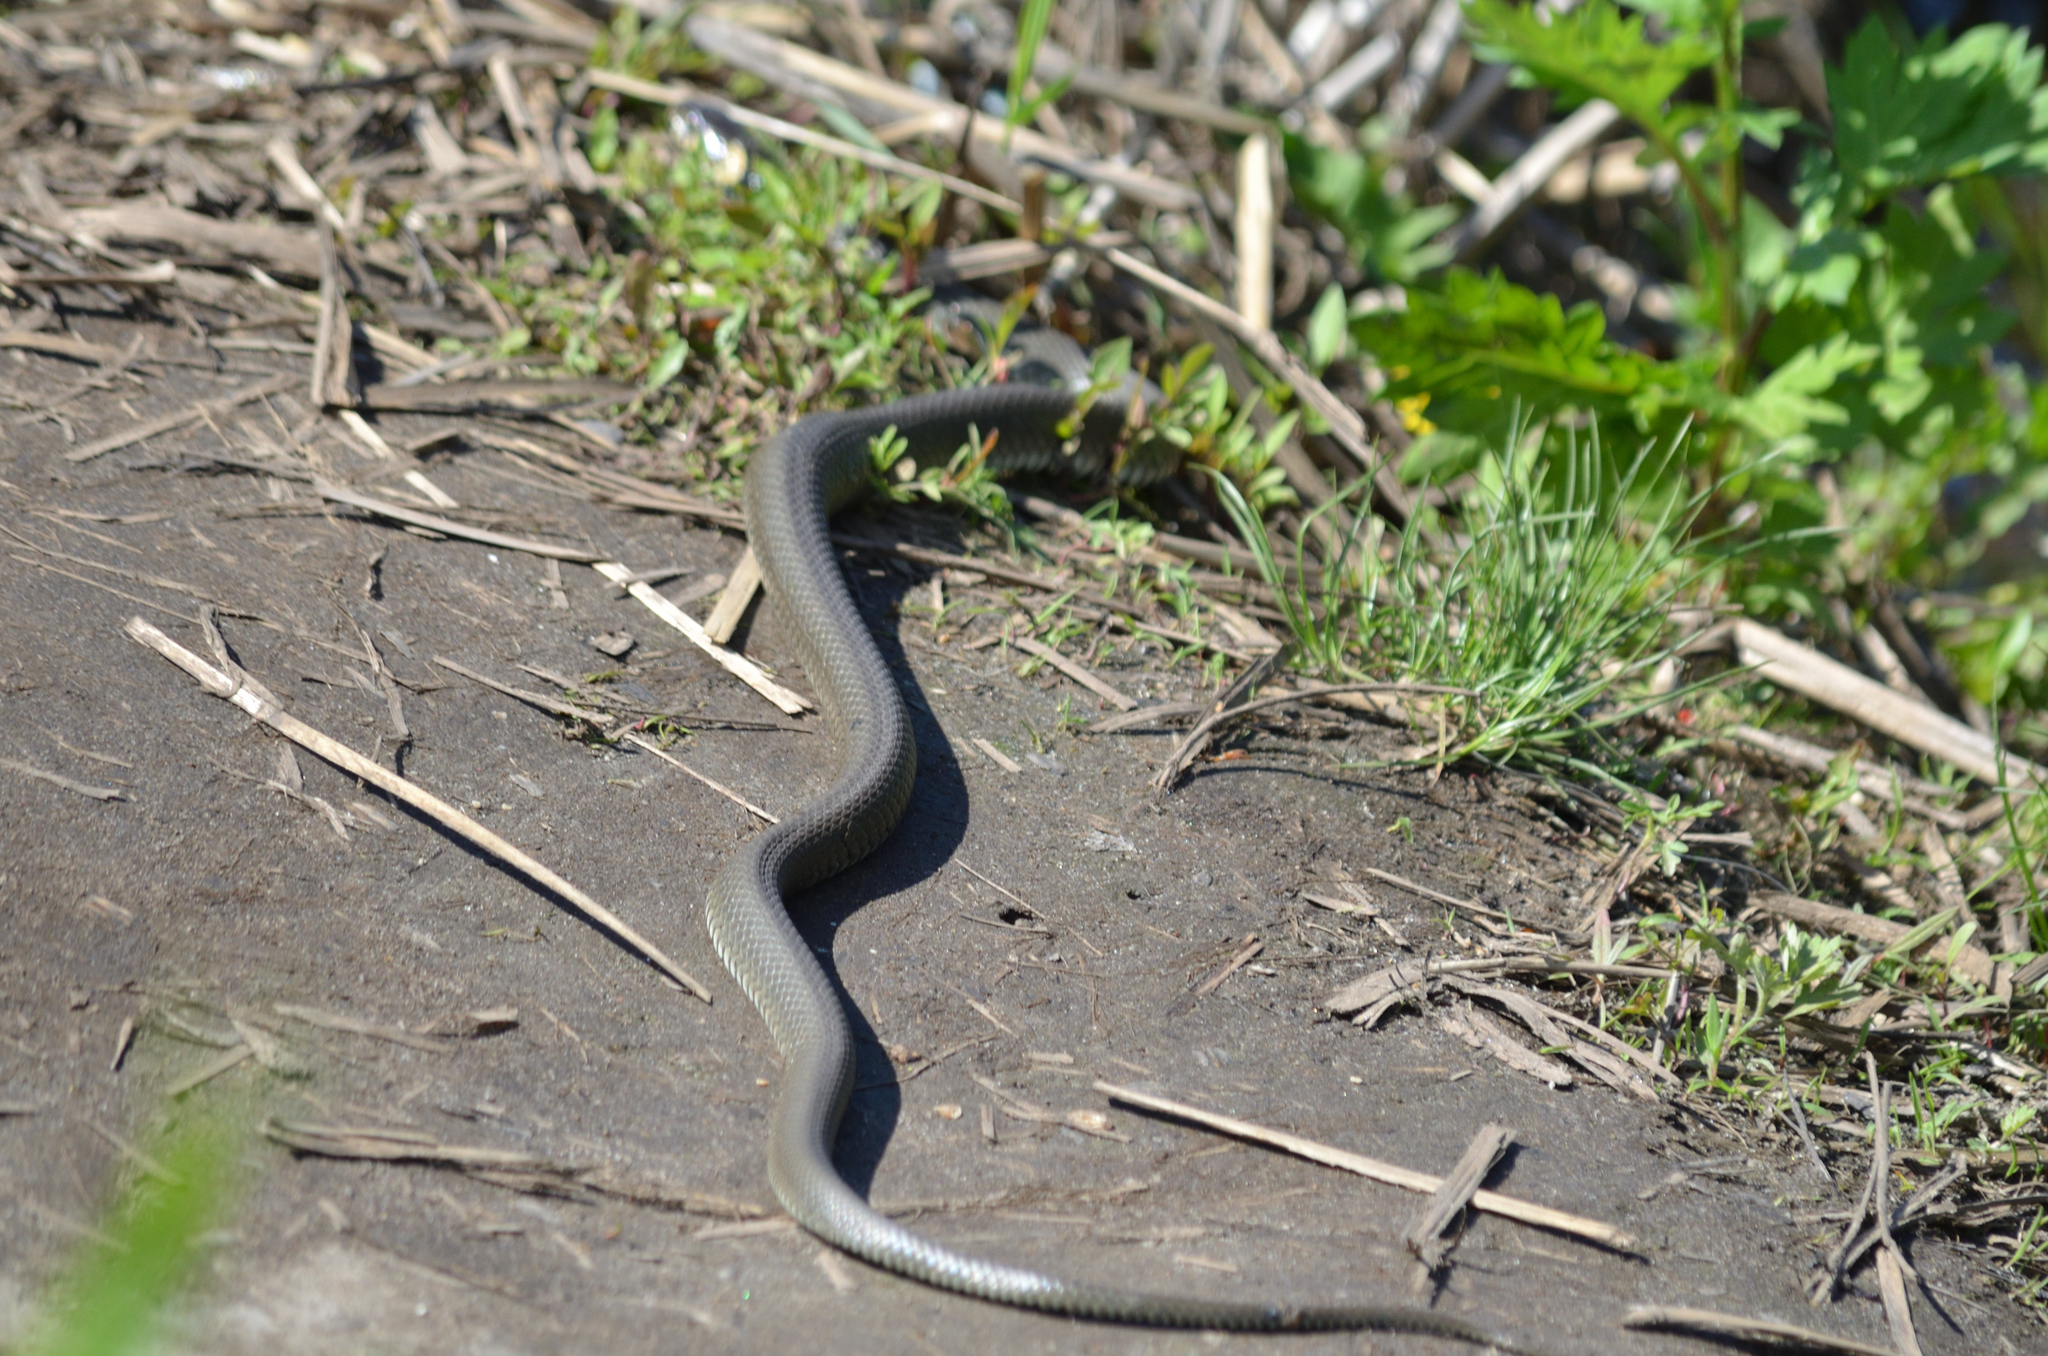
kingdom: Animalia
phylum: Chordata
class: Squamata
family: Colubridae
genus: Natrix
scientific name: Natrix natrix
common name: Grass snake
